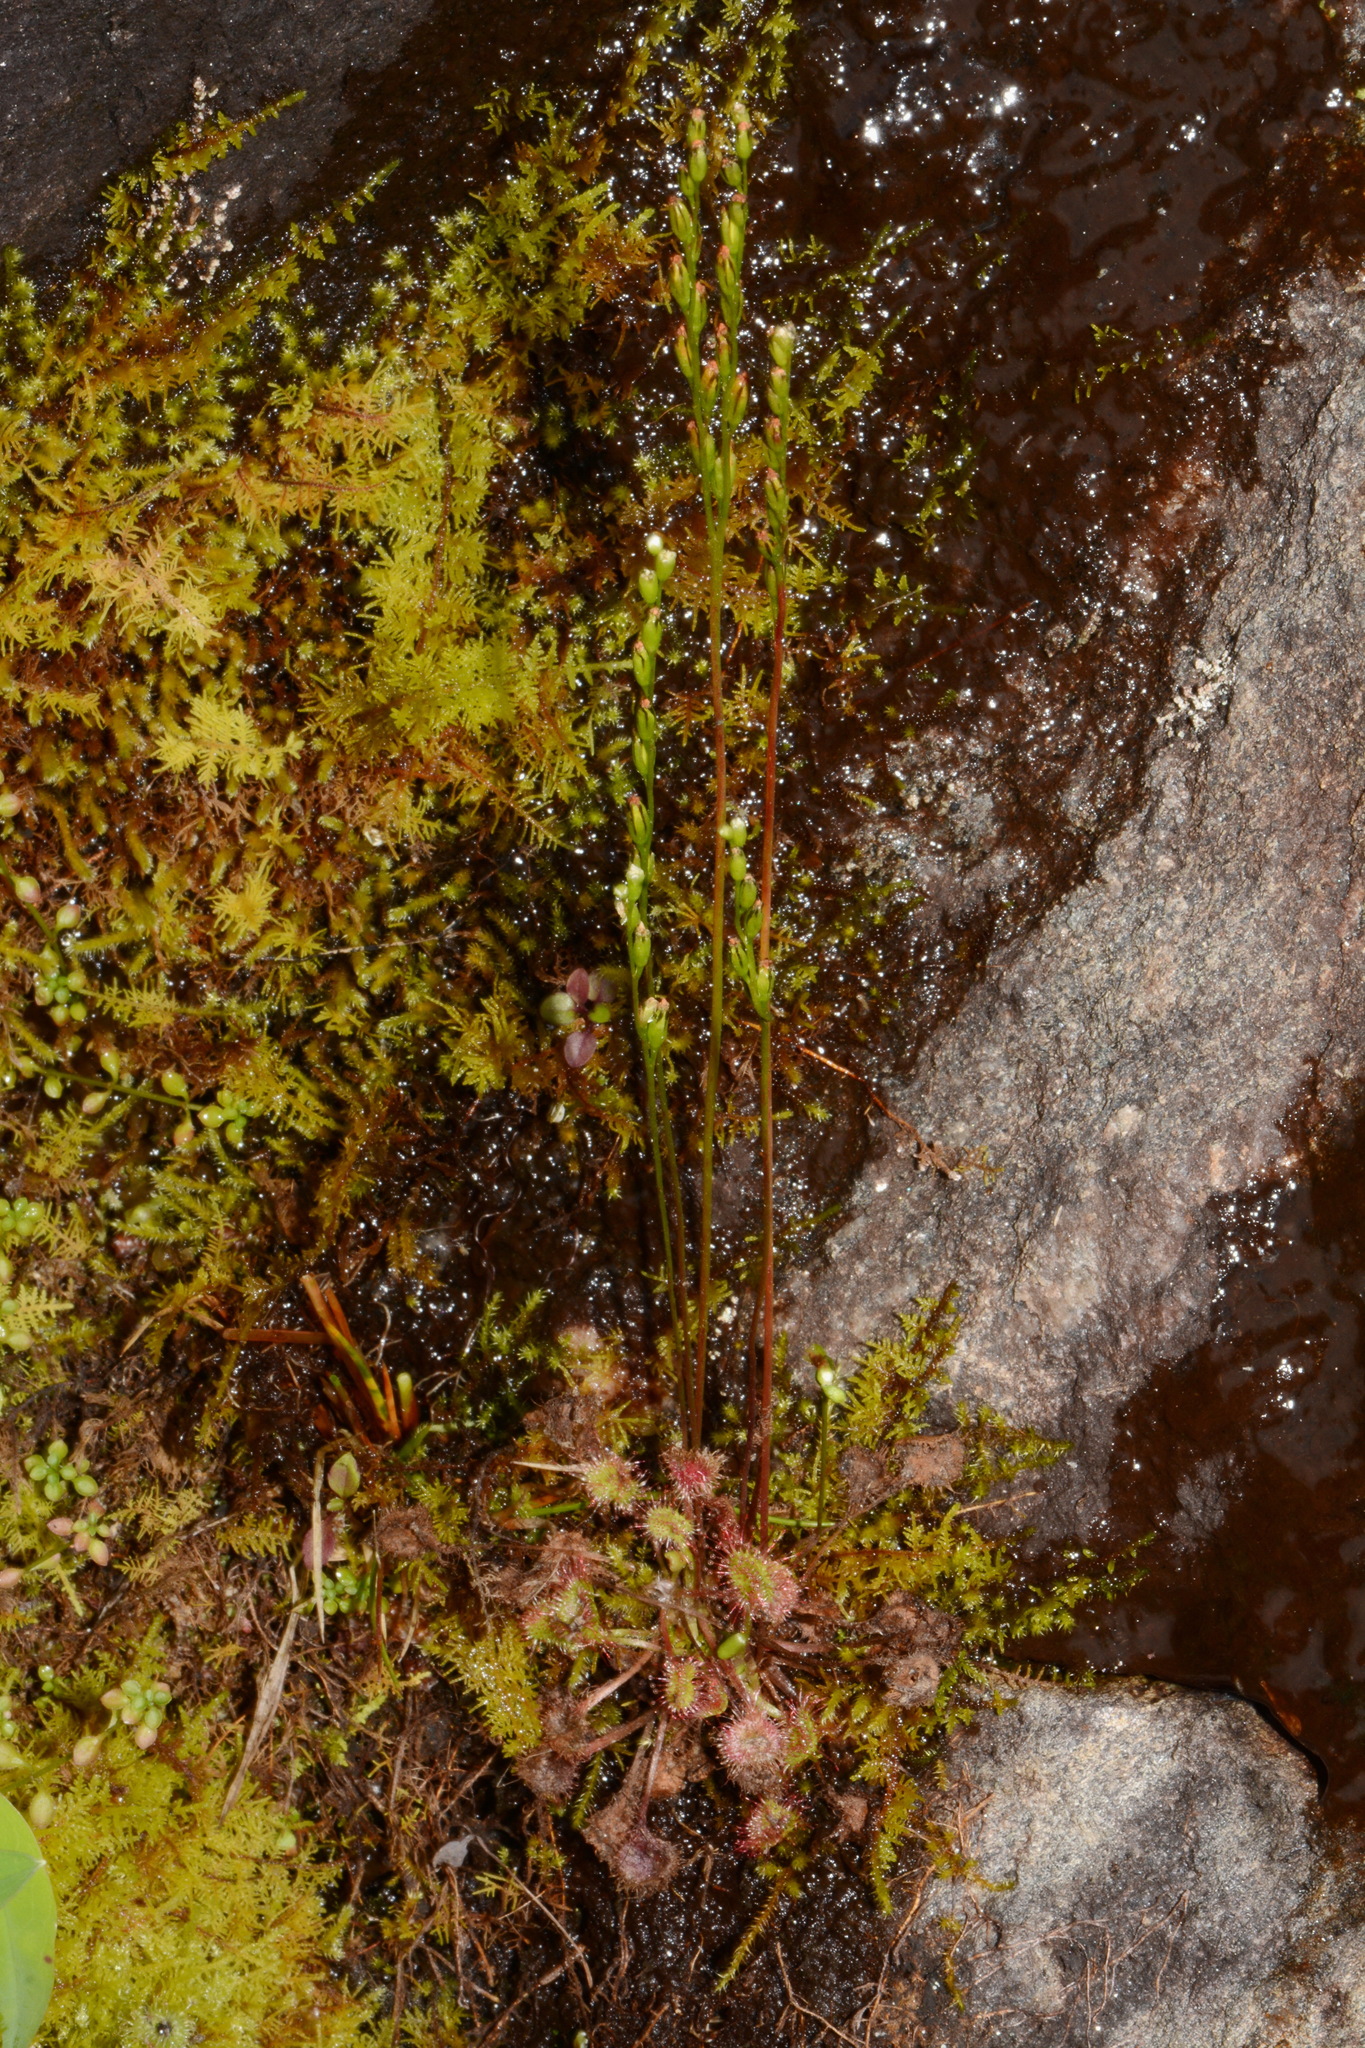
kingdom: Plantae
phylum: Tracheophyta
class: Magnoliopsida
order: Caryophyllales
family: Droseraceae
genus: Drosera
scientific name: Drosera rotundifolia
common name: Round-leaved sundew
